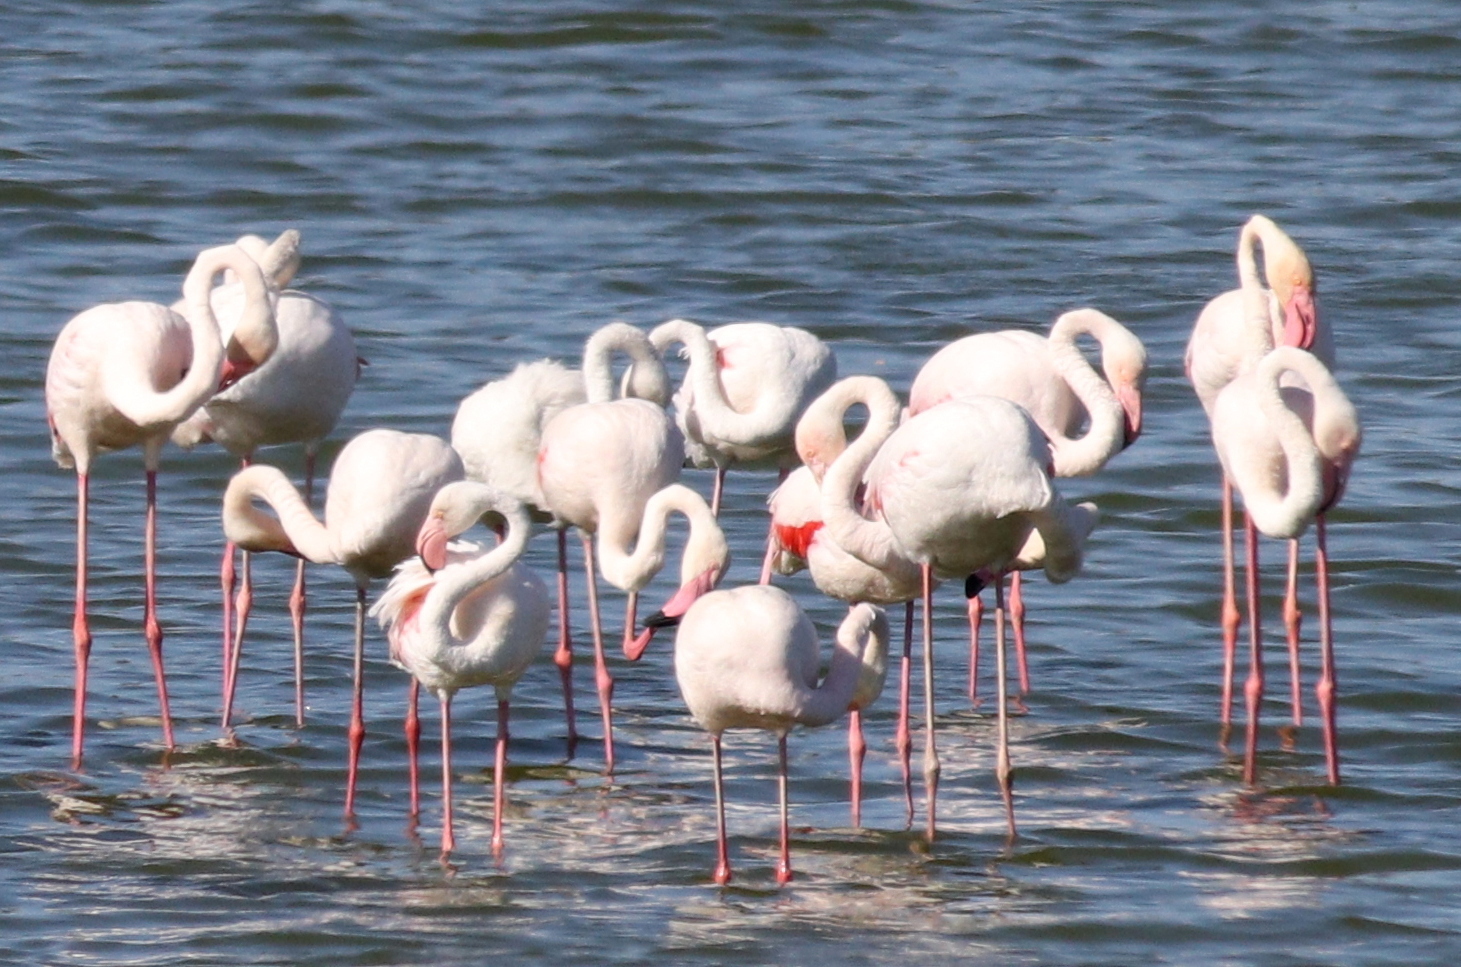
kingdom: Animalia
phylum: Chordata
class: Aves
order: Phoenicopteriformes
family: Phoenicopteridae
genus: Phoenicopterus
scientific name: Phoenicopterus roseus
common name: Greater flamingo
